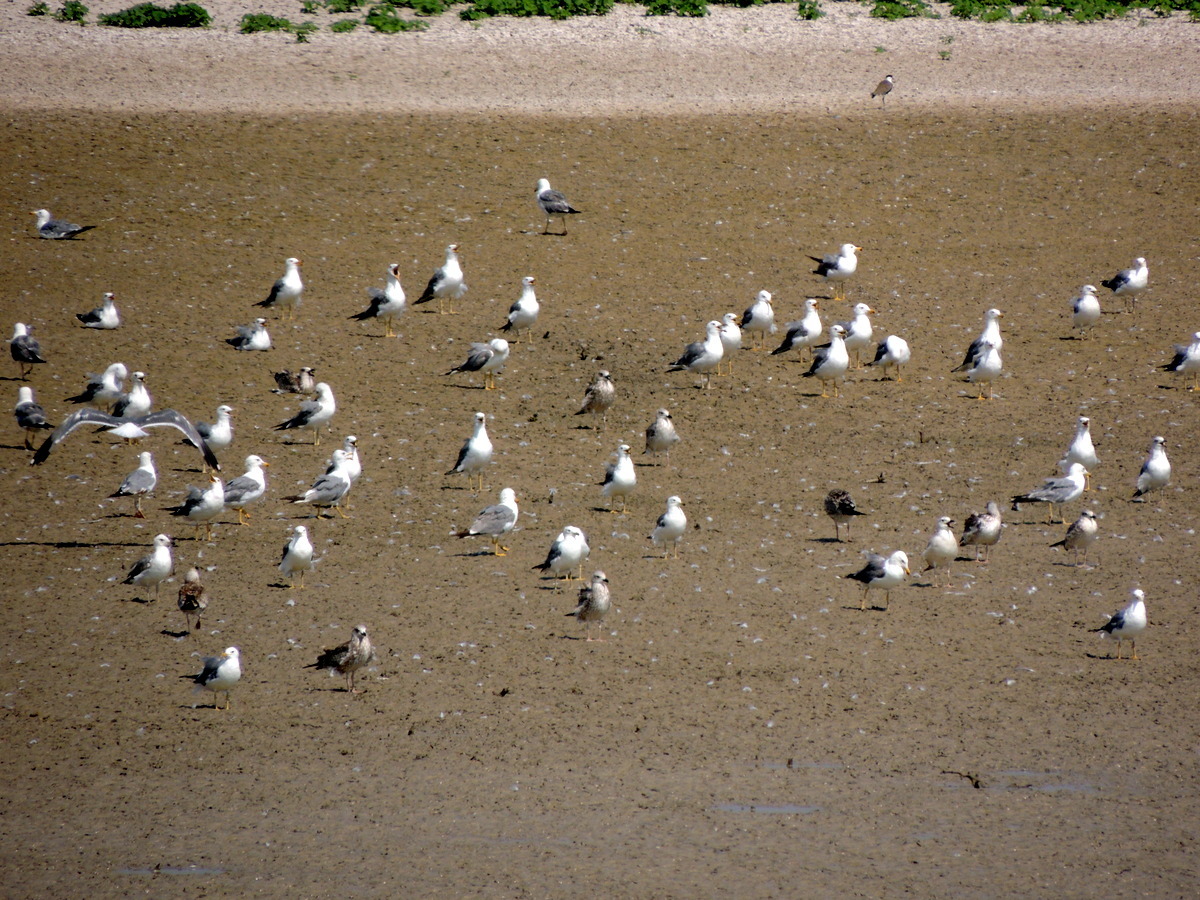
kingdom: Animalia
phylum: Chordata
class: Aves
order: Charadriiformes
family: Laridae
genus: Larus
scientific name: Larus armenicus
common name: Armenian gull
